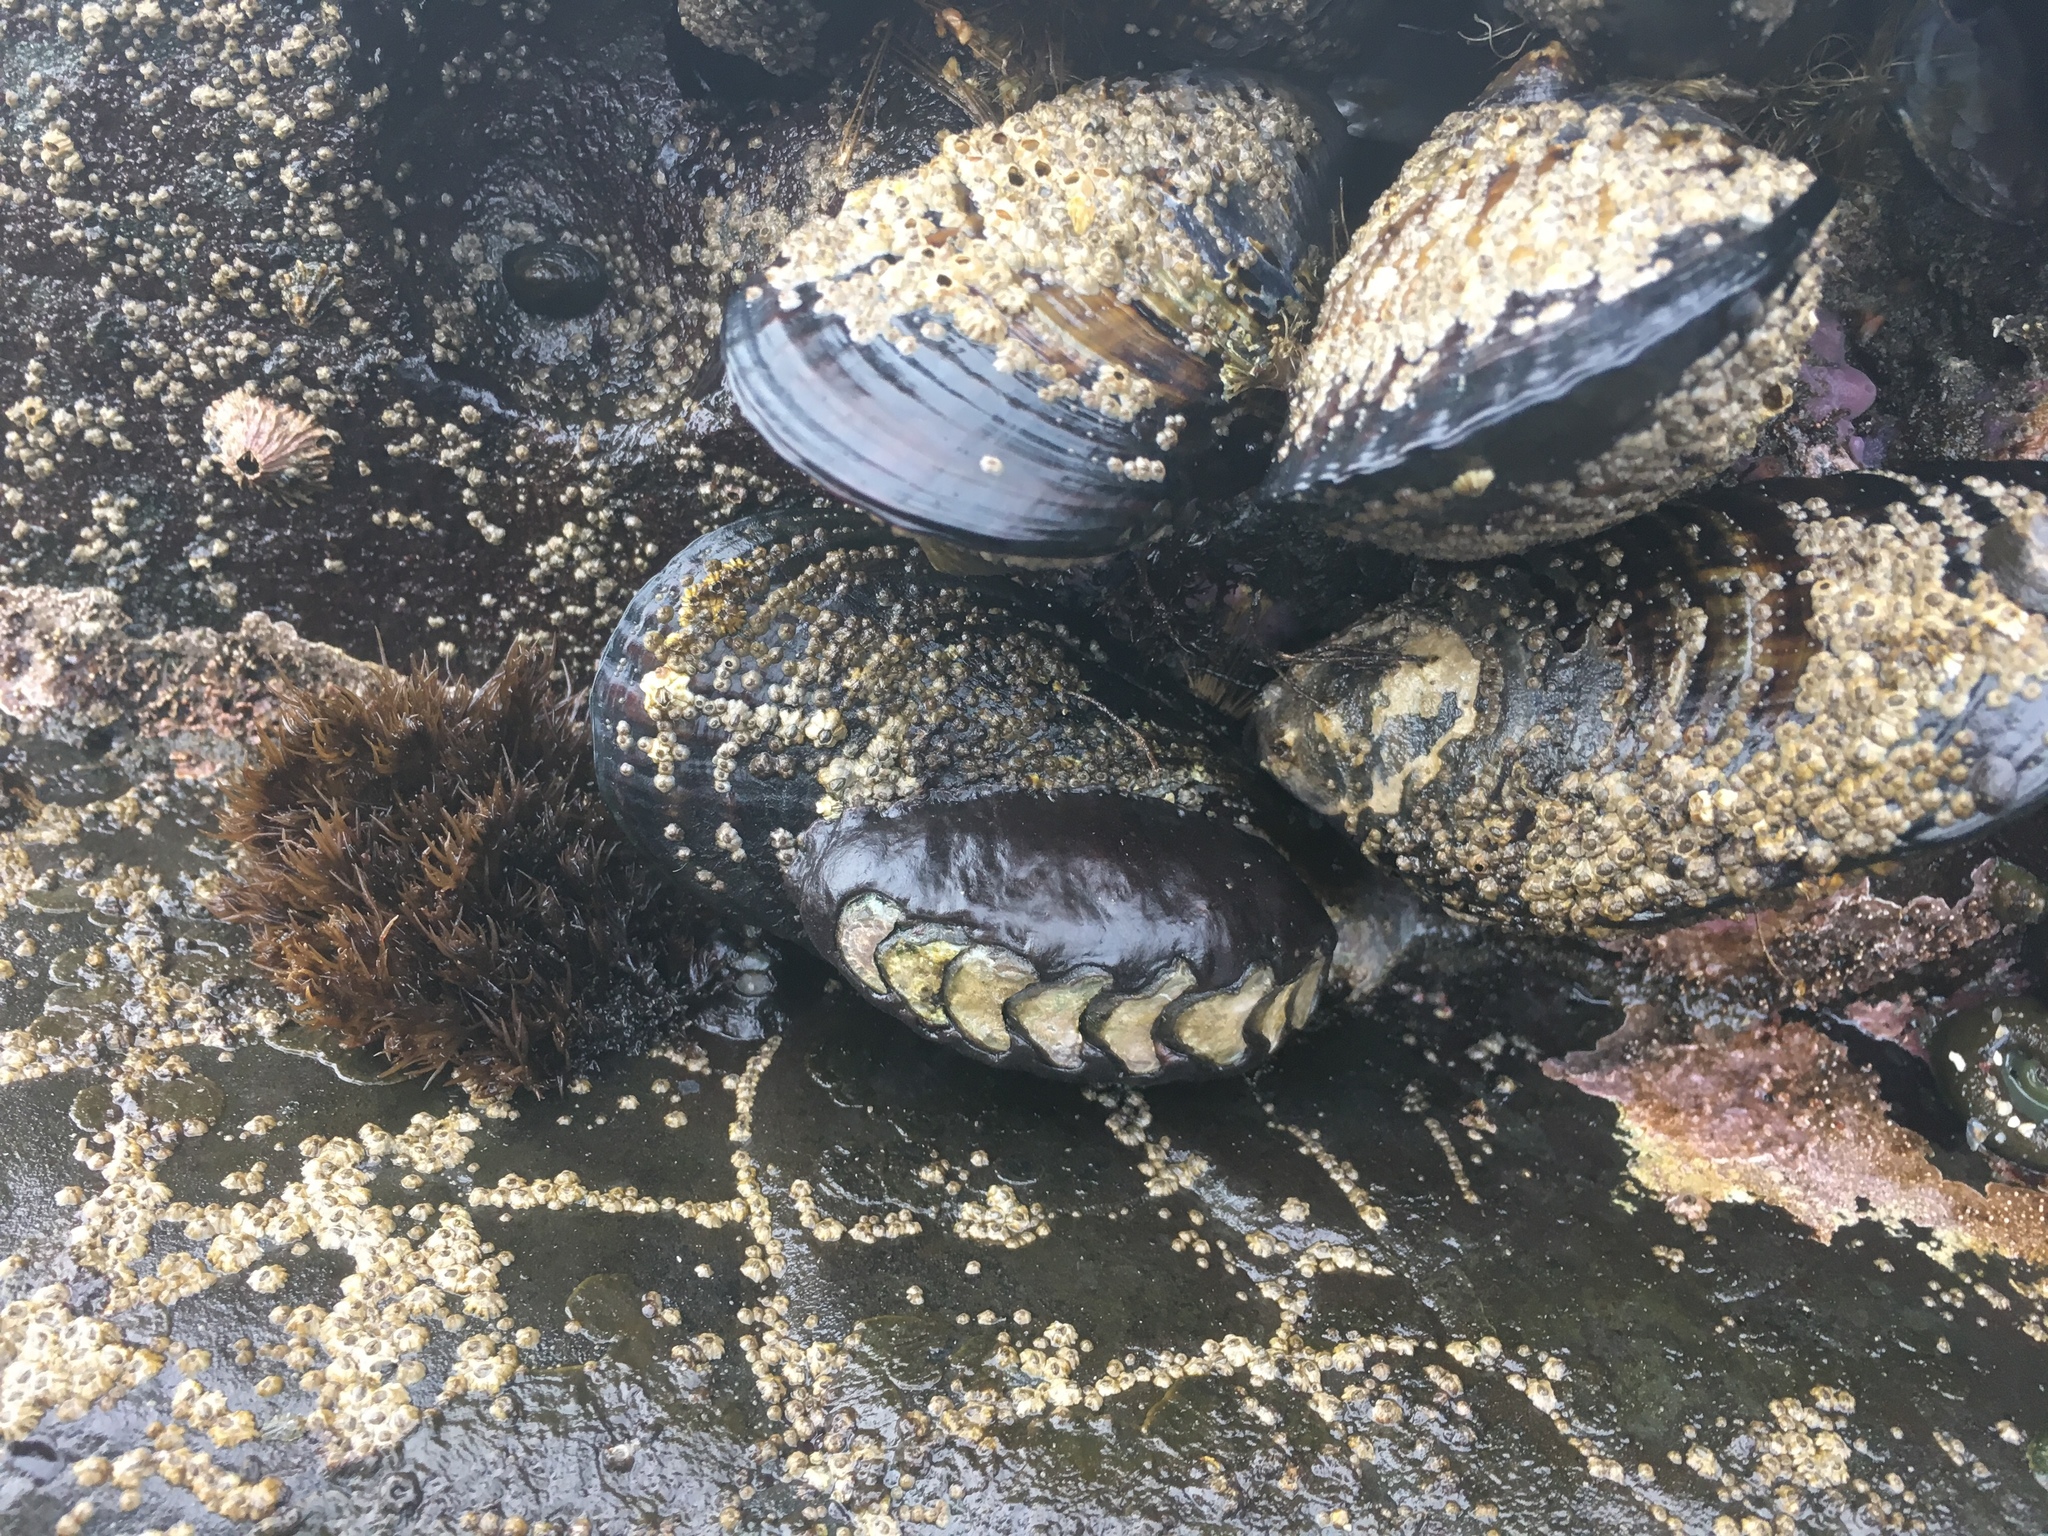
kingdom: Animalia
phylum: Mollusca
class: Polyplacophora
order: Chitonida
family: Mopaliidae
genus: Katharina
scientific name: Katharina tunicata
